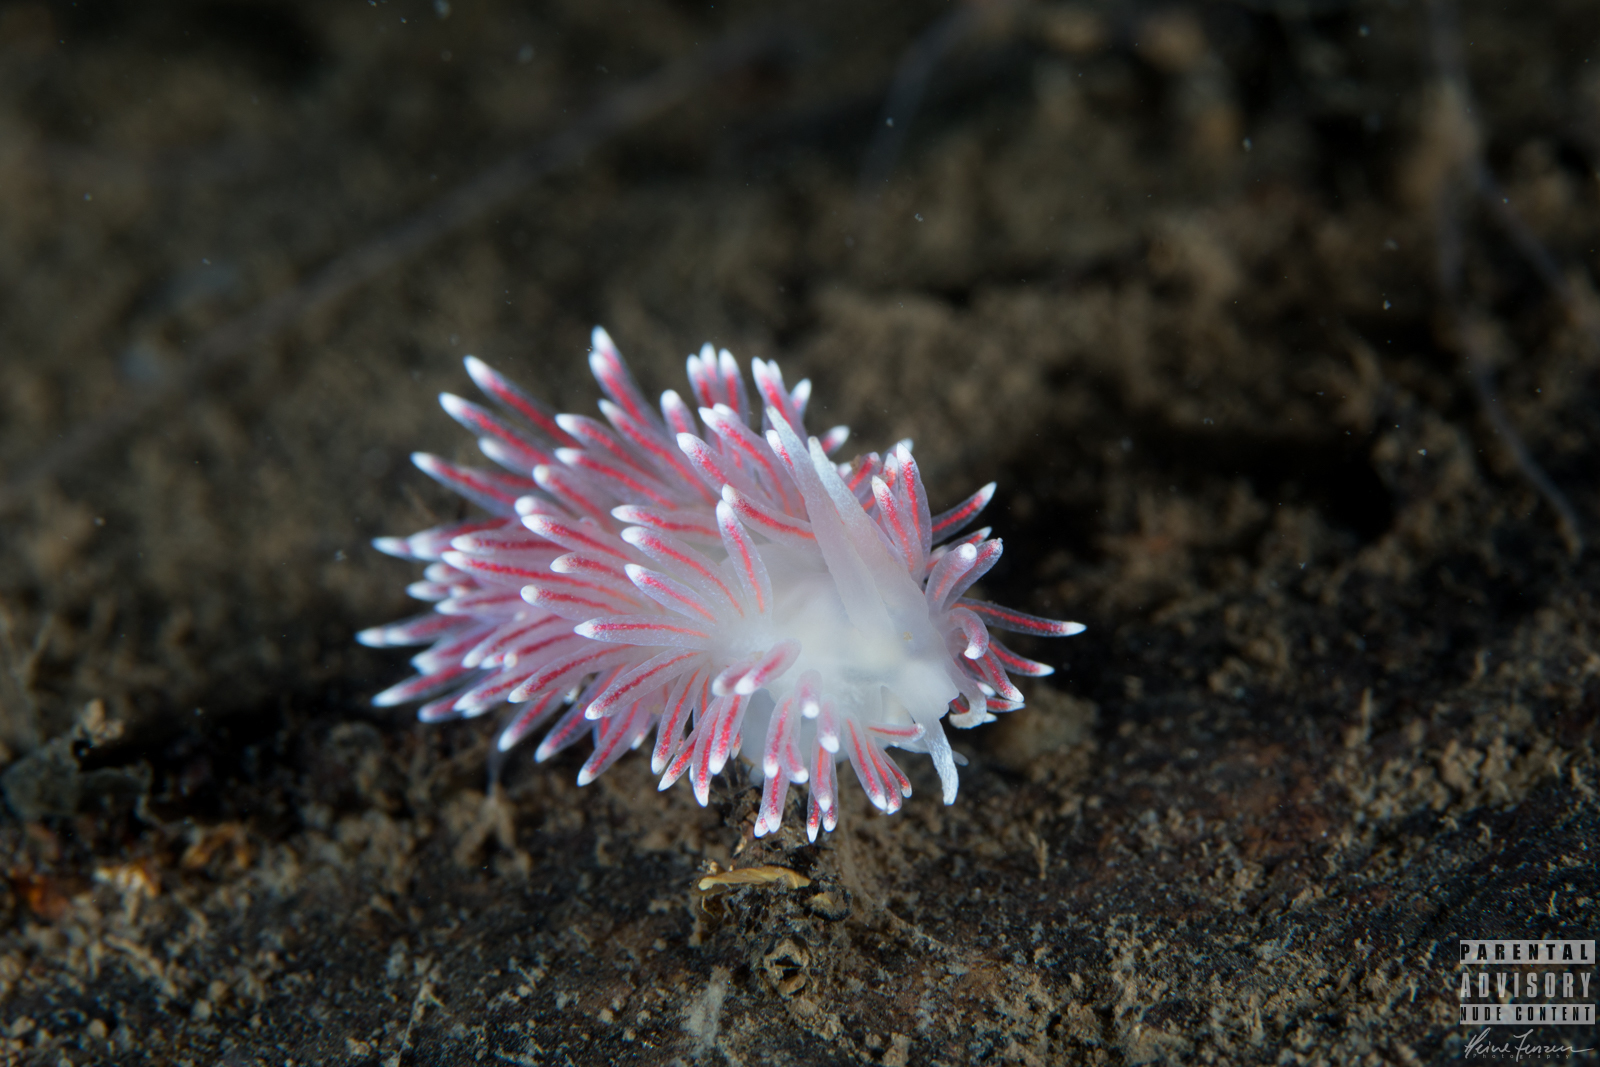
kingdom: Animalia
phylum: Mollusca
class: Gastropoda
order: Nudibranchia
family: Flabellinidae
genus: Carronella
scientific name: Carronella pellucida
